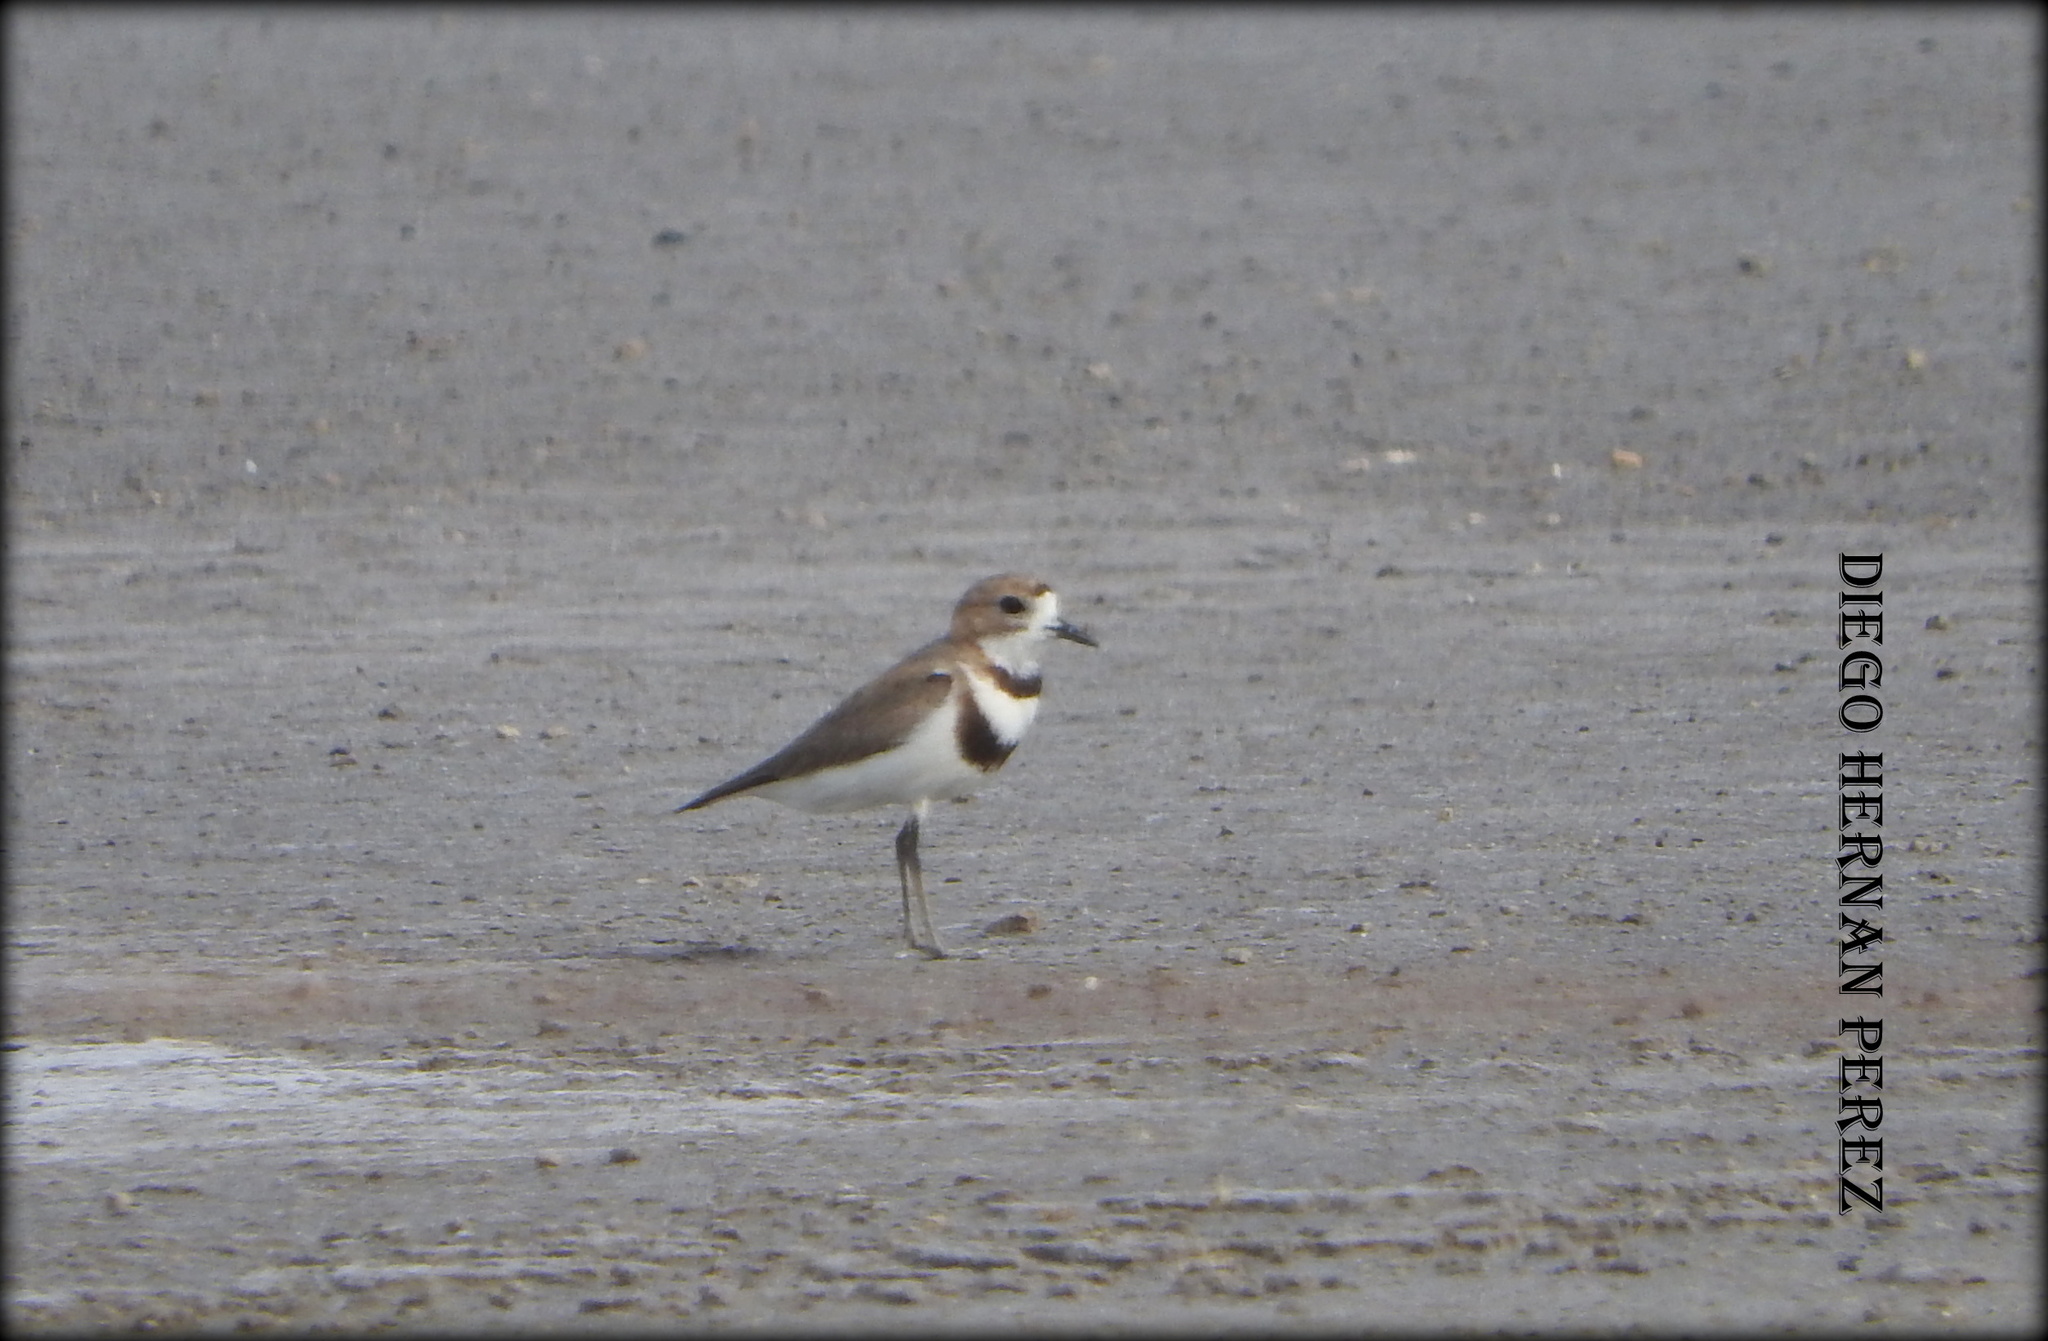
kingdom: Animalia
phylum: Chordata
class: Aves
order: Charadriiformes
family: Charadriidae
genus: Anarhynchus
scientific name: Anarhynchus
